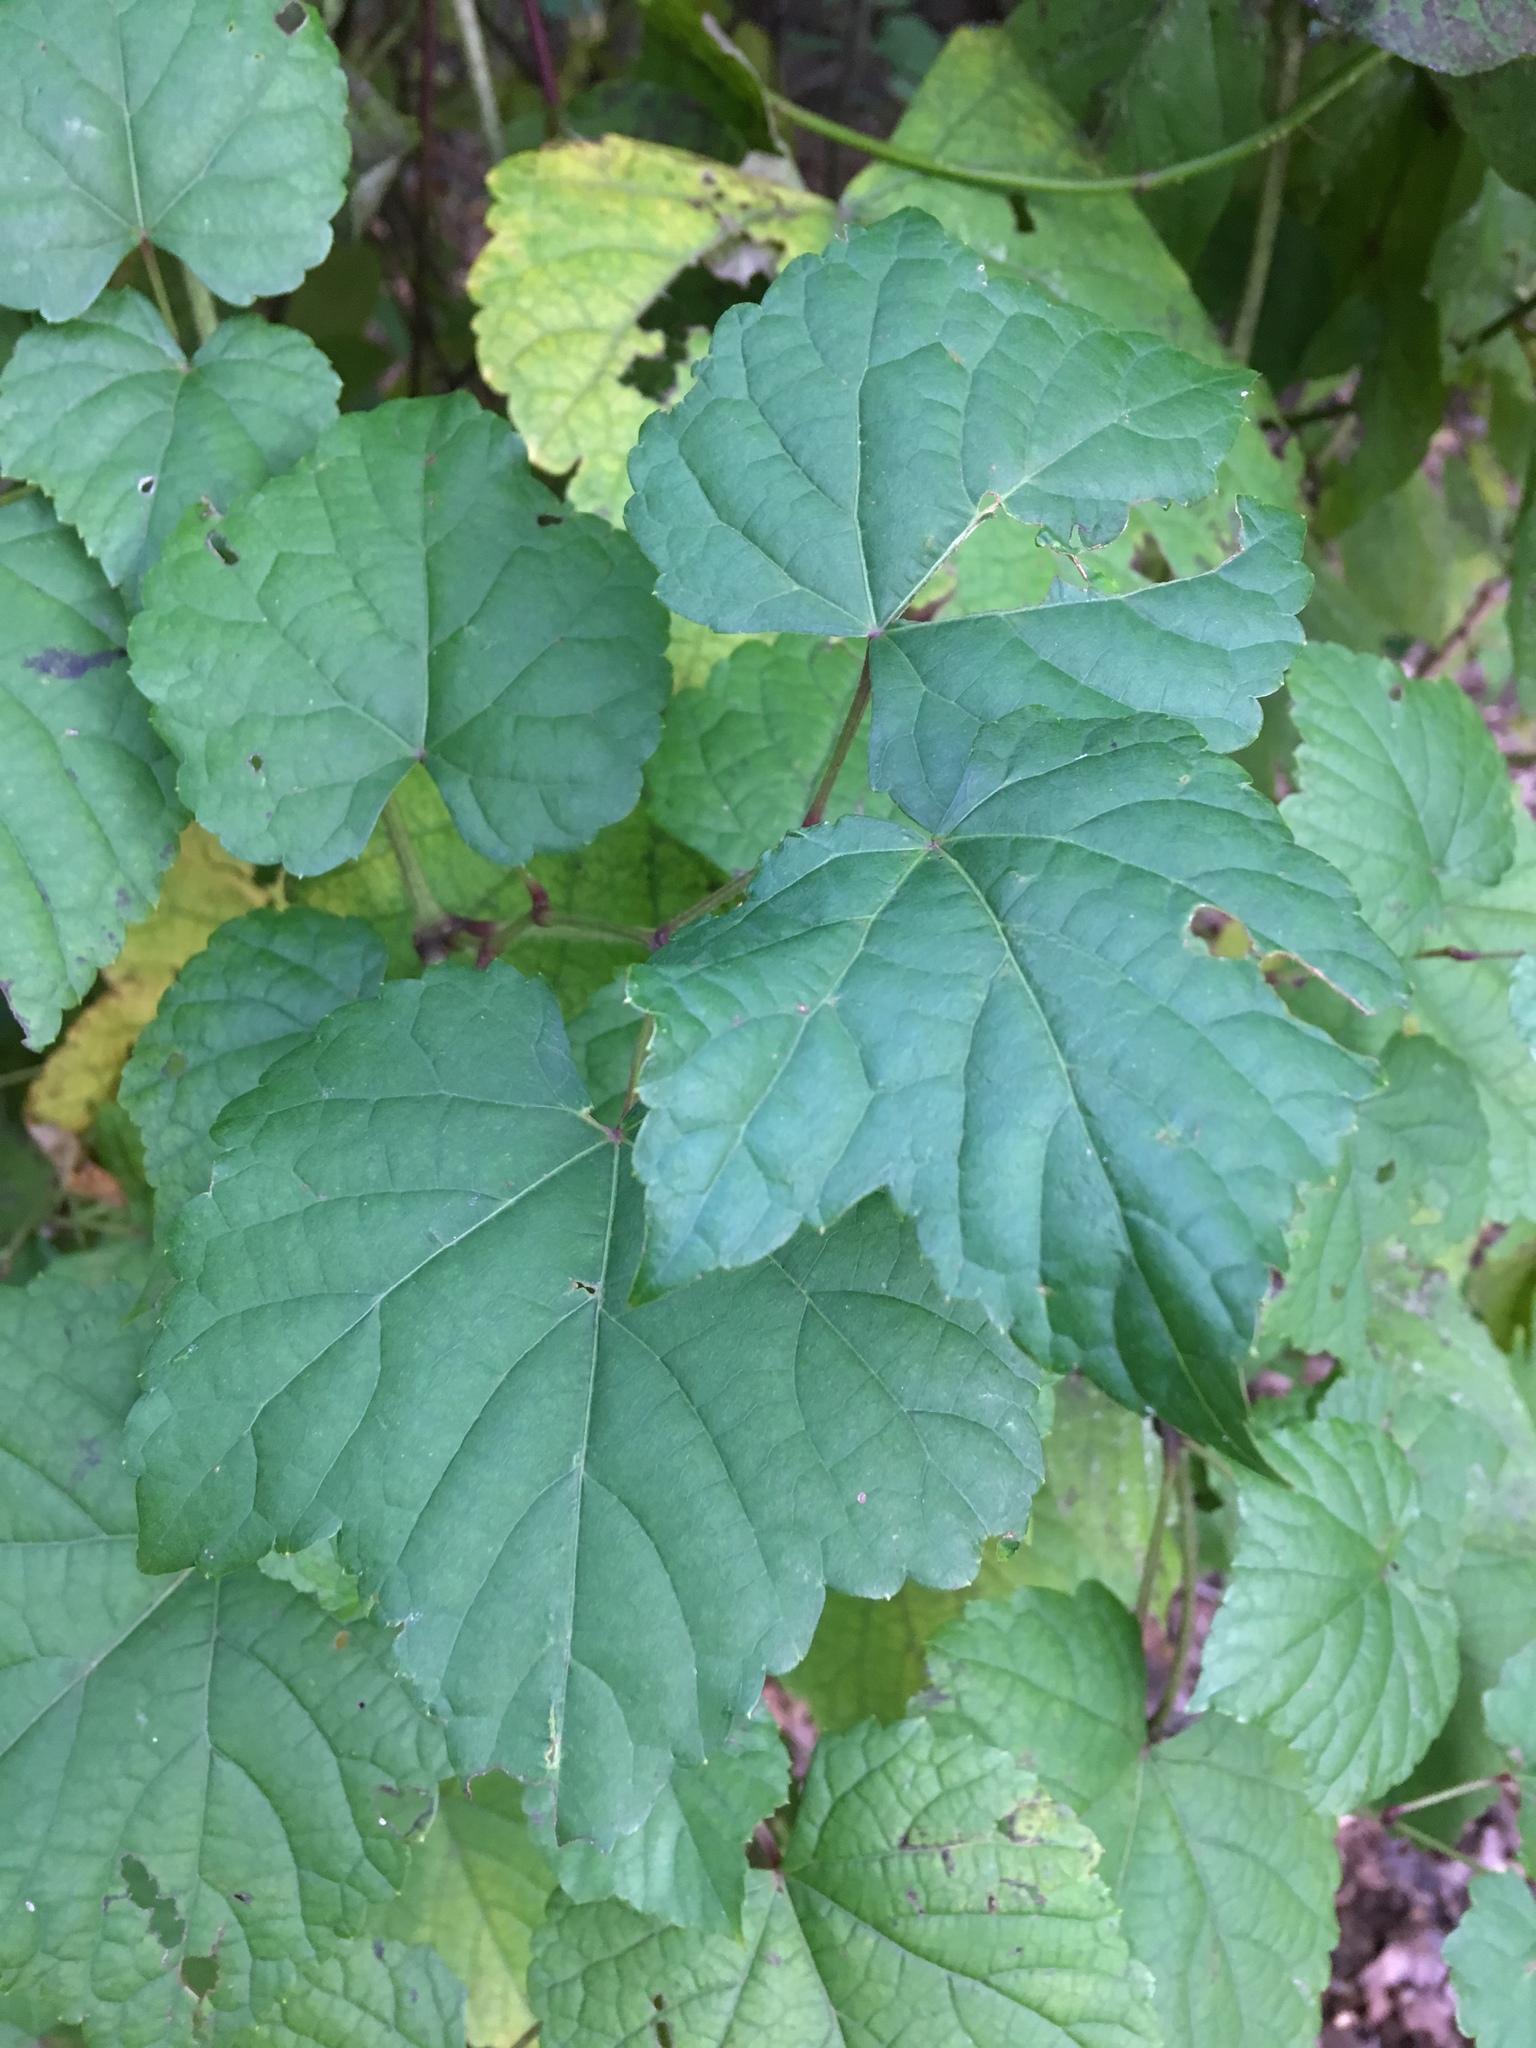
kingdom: Plantae
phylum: Tracheophyta
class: Magnoliopsida
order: Vitales
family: Vitaceae
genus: Ampelopsis
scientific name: Ampelopsis glandulosa
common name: Amur peppervine
